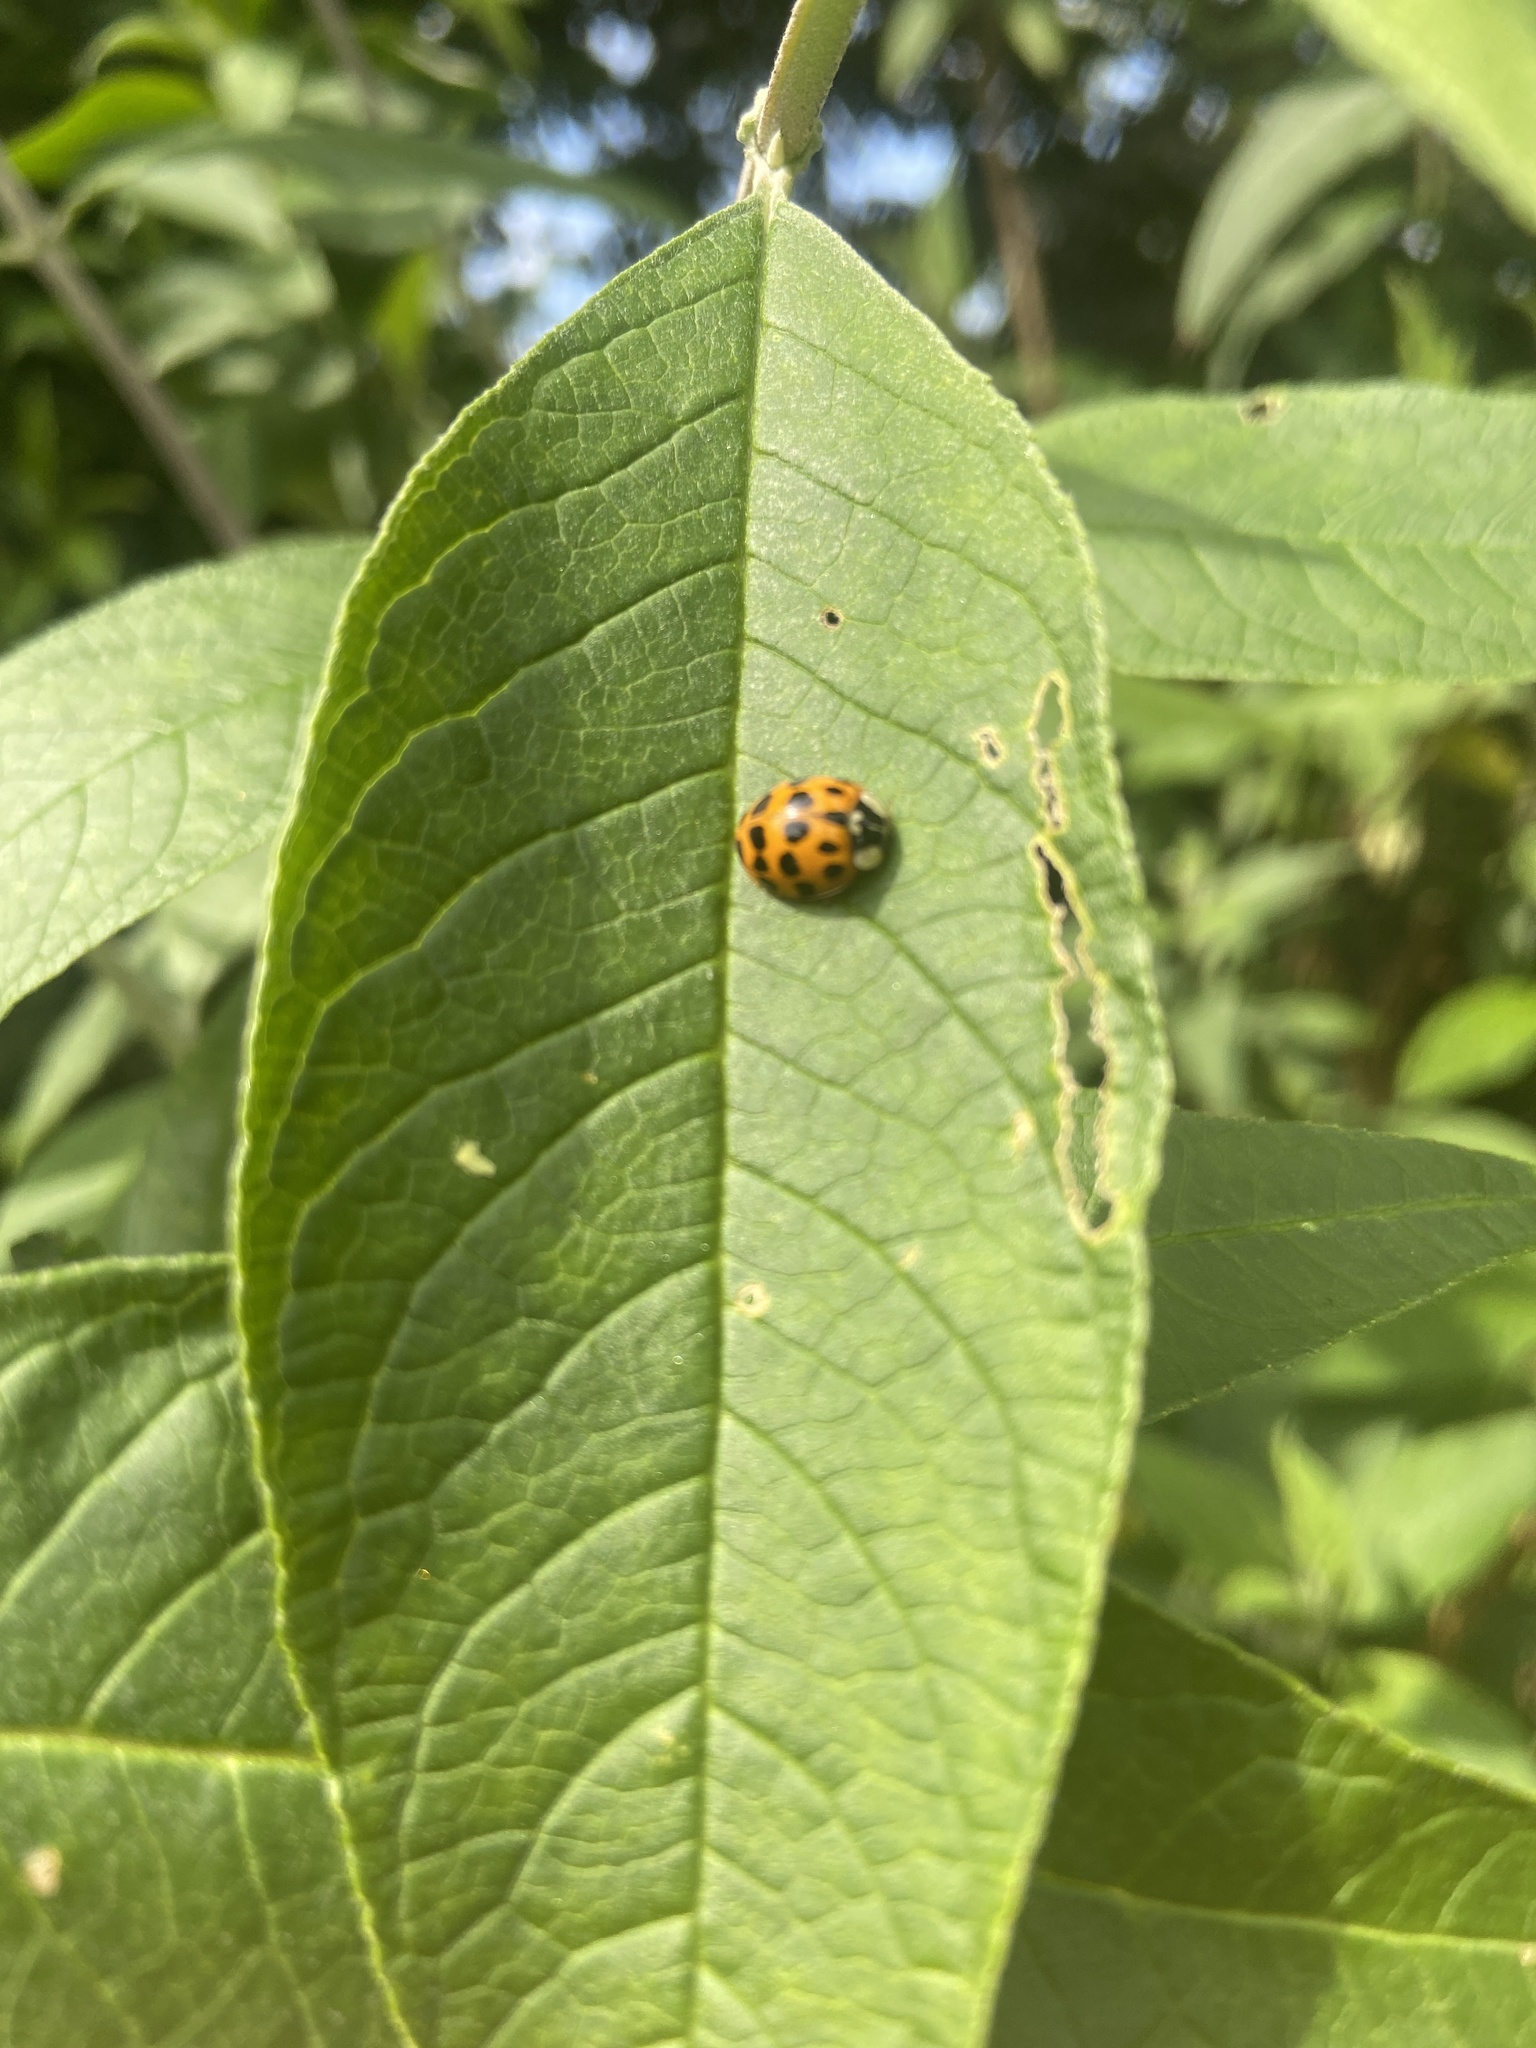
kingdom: Animalia
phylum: Arthropoda
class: Insecta
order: Coleoptera
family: Coccinellidae
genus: Harmonia
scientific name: Harmonia axyridis
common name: Harlequin ladybird
